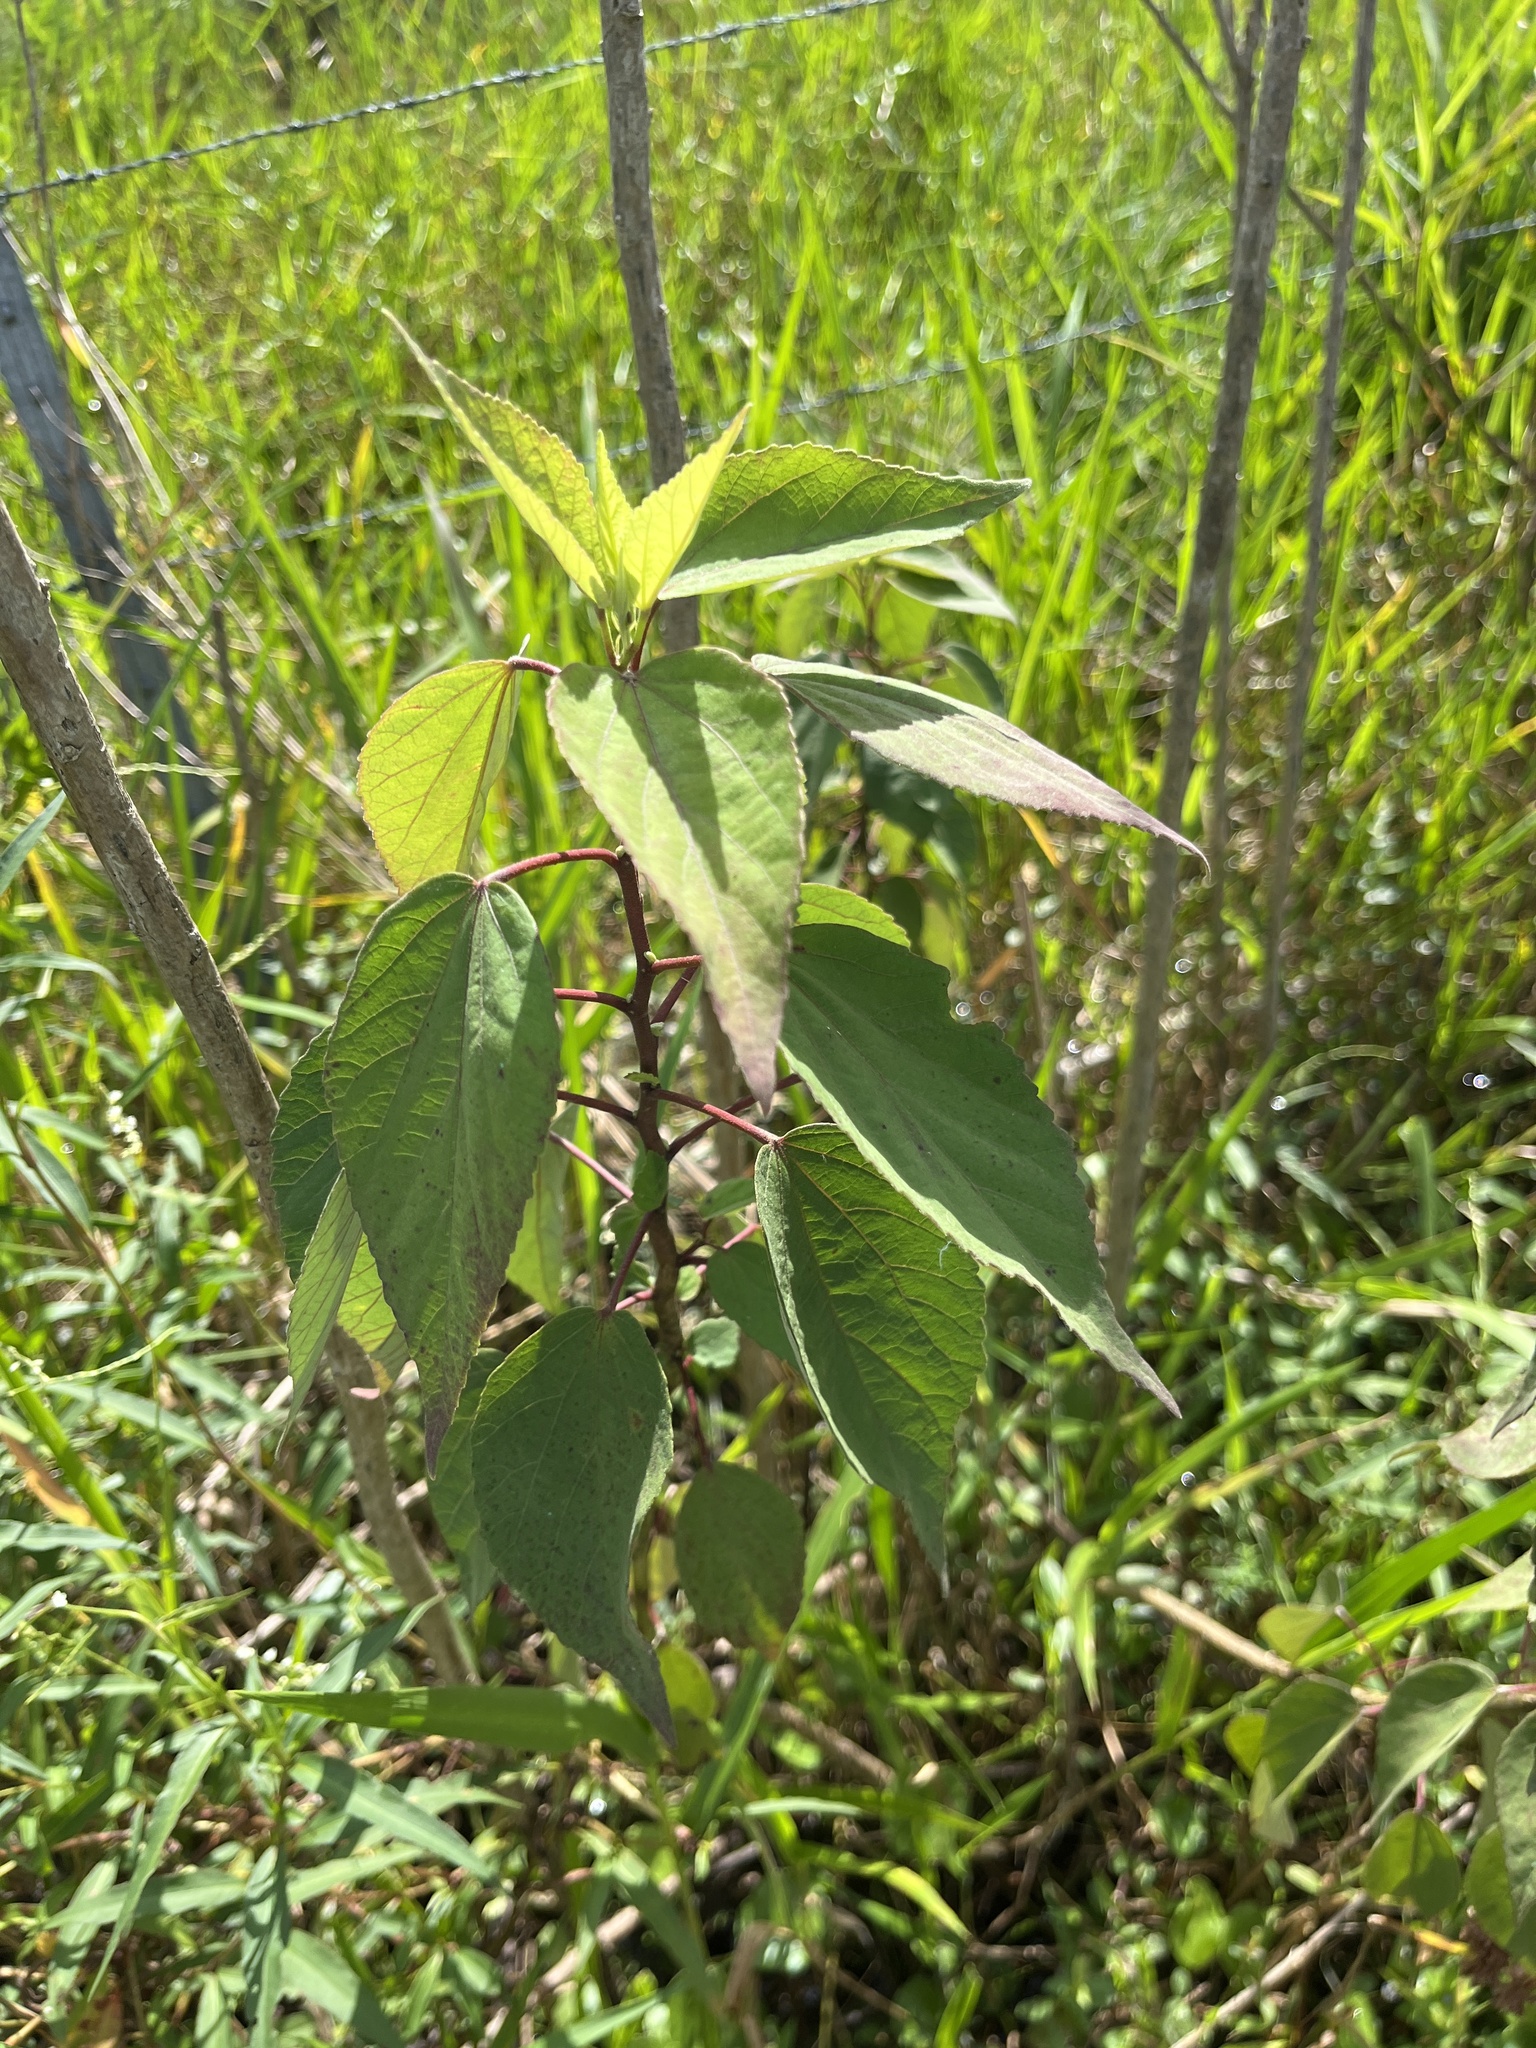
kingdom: Plantae
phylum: Tracheophyta
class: Magnoliopsida
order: Malvales
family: Malvaceae
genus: Hibiscus
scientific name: Hibiscus moscheutos
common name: Common rose-mallow
